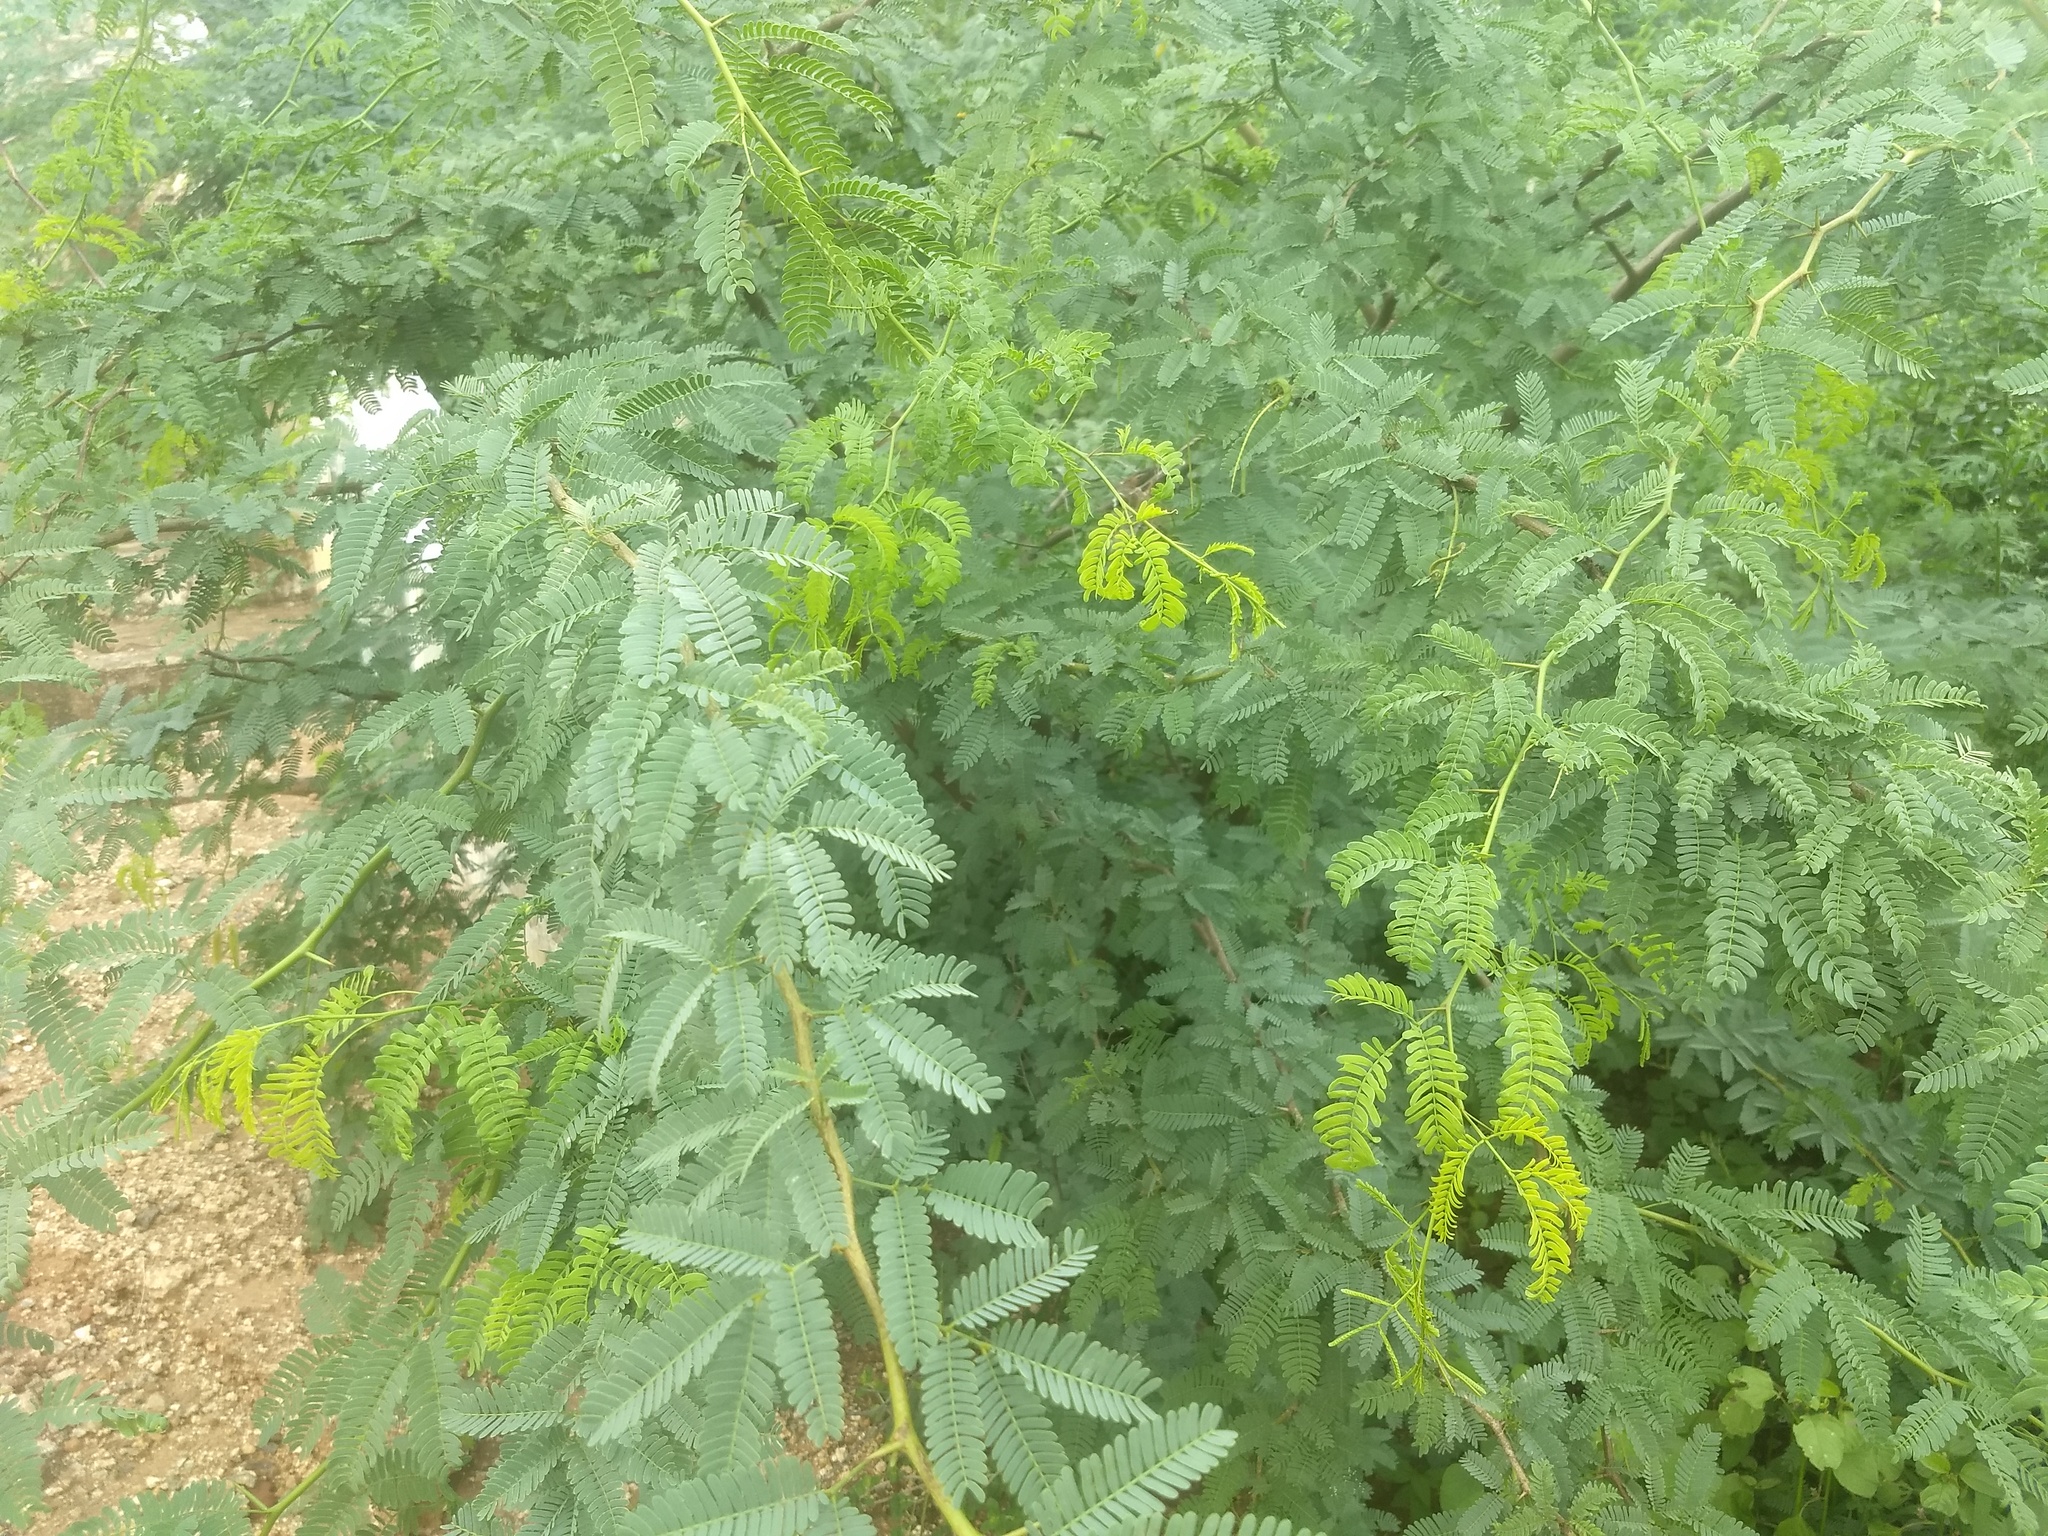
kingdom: Plantae
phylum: Tracheophyta
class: Magnoliopsida
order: Fabales
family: Fabaceae
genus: Prosopis
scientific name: Prosopis juliflora
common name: Mesquite
